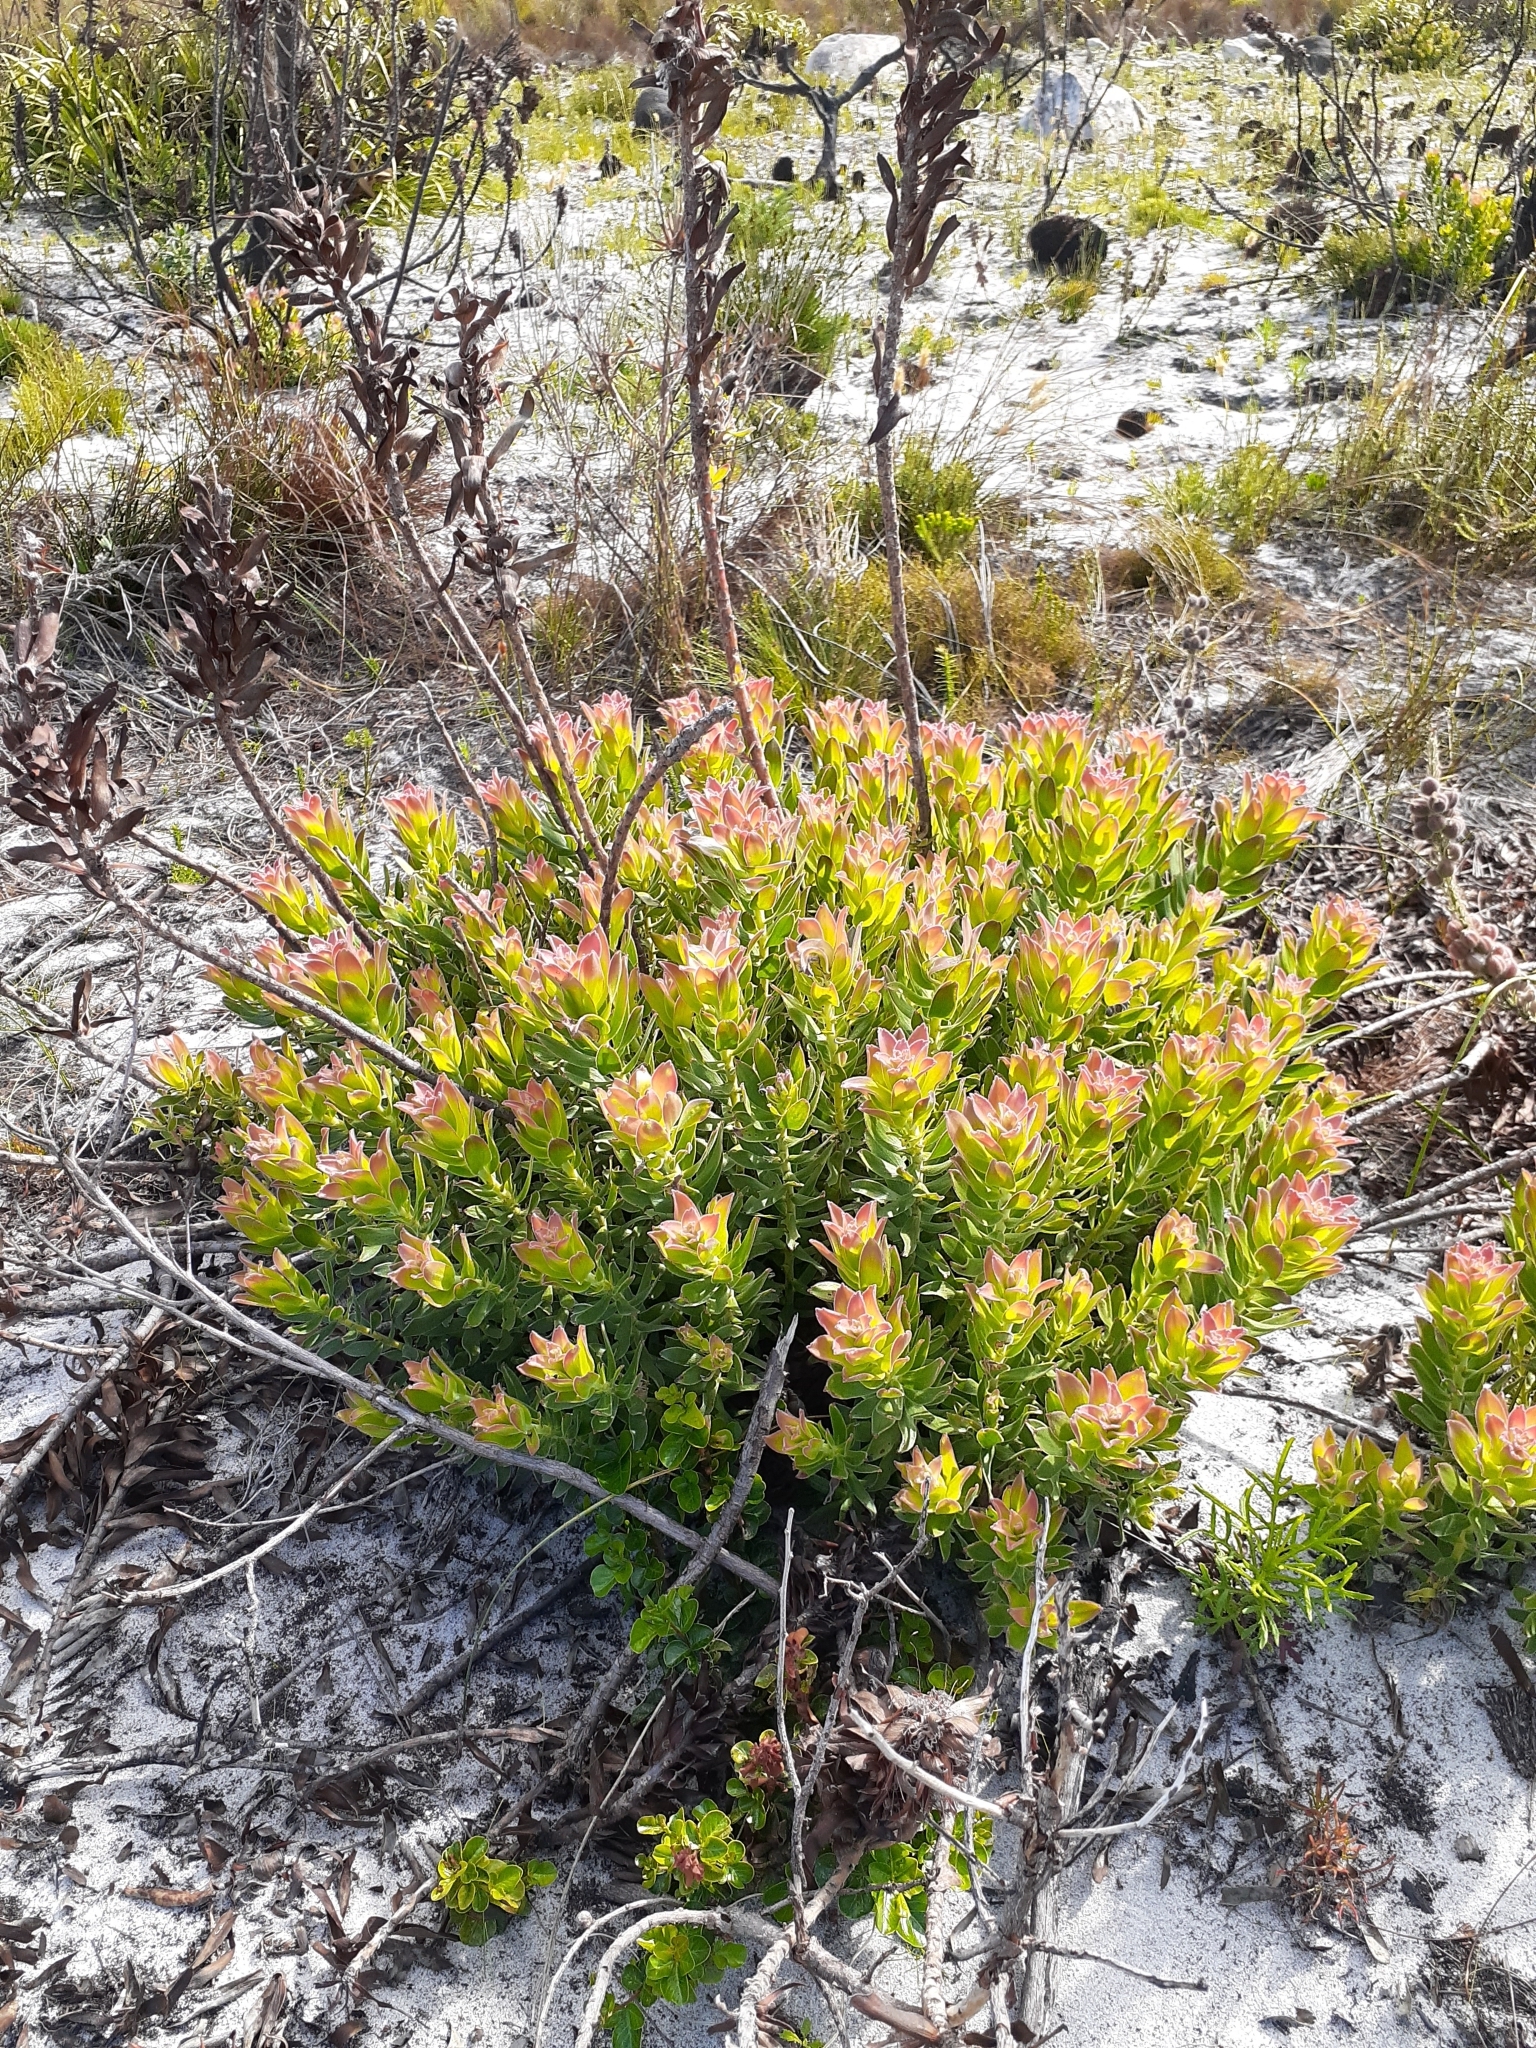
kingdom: Plantae
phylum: Tracheophyta
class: Magnoliopsida
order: Proteales
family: Proteaceae
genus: Mimetes
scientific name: Mimetes cucullatus
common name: Common pagoda
